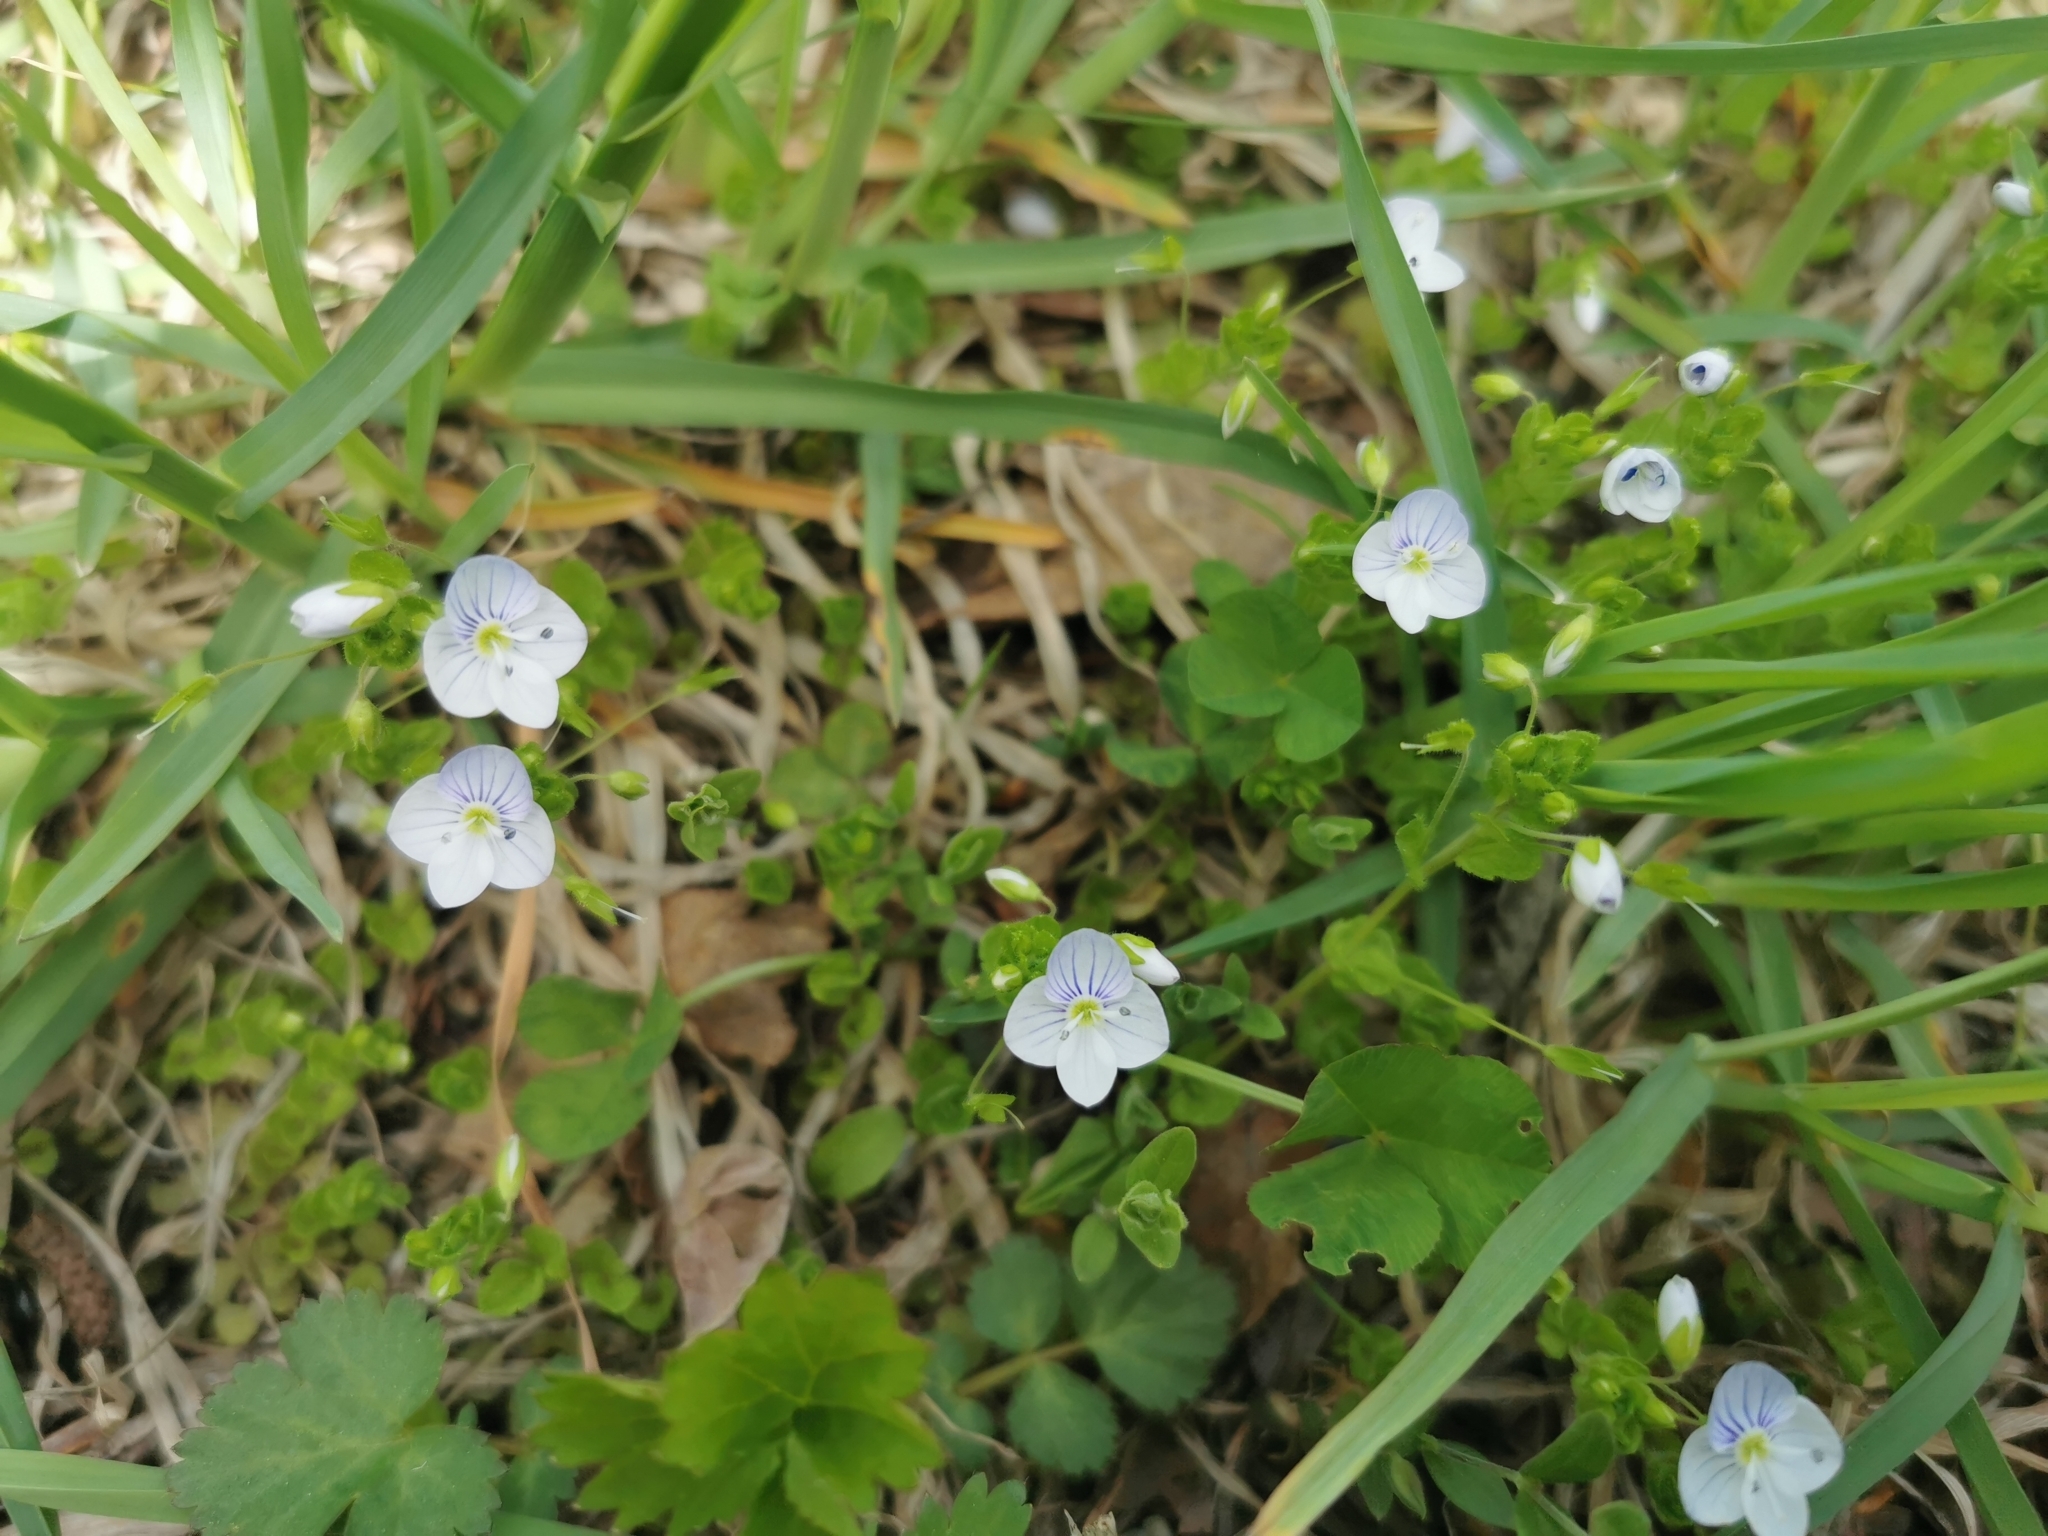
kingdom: Plantae
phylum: Tracheophyta
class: Magnoliopsida
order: Lamiales
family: Plantaginaceae
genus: Veronica
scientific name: Veronica filiformis
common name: Slender speedwell
